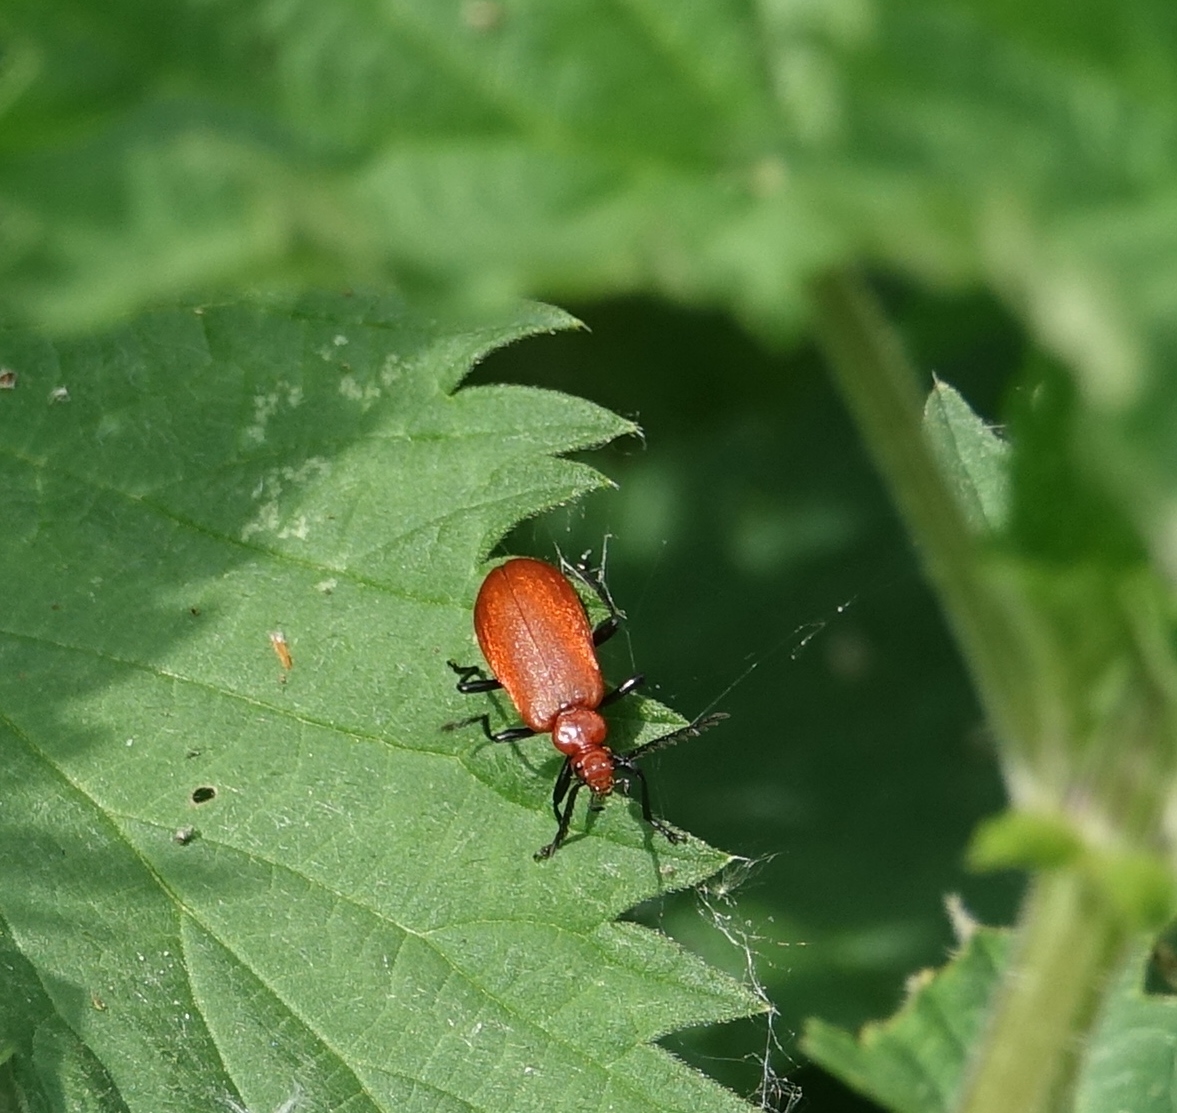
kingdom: Animalia
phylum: Arthropoda
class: Insecta
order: Coleoptera
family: Pyrochroidae
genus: Pyrochroa
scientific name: Pyrochroa serraticornis
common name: Red-headed cardinal beetle
